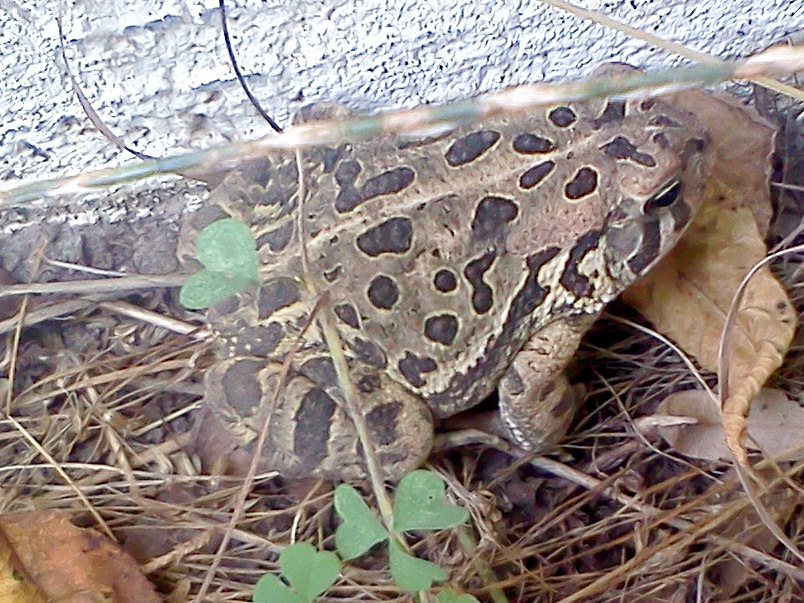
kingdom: Animalia
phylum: Chordata
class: Amphibia
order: Anura
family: Bufonidae
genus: Anaxyrus
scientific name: Anaxyrus fowleri
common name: Fowler's toad
